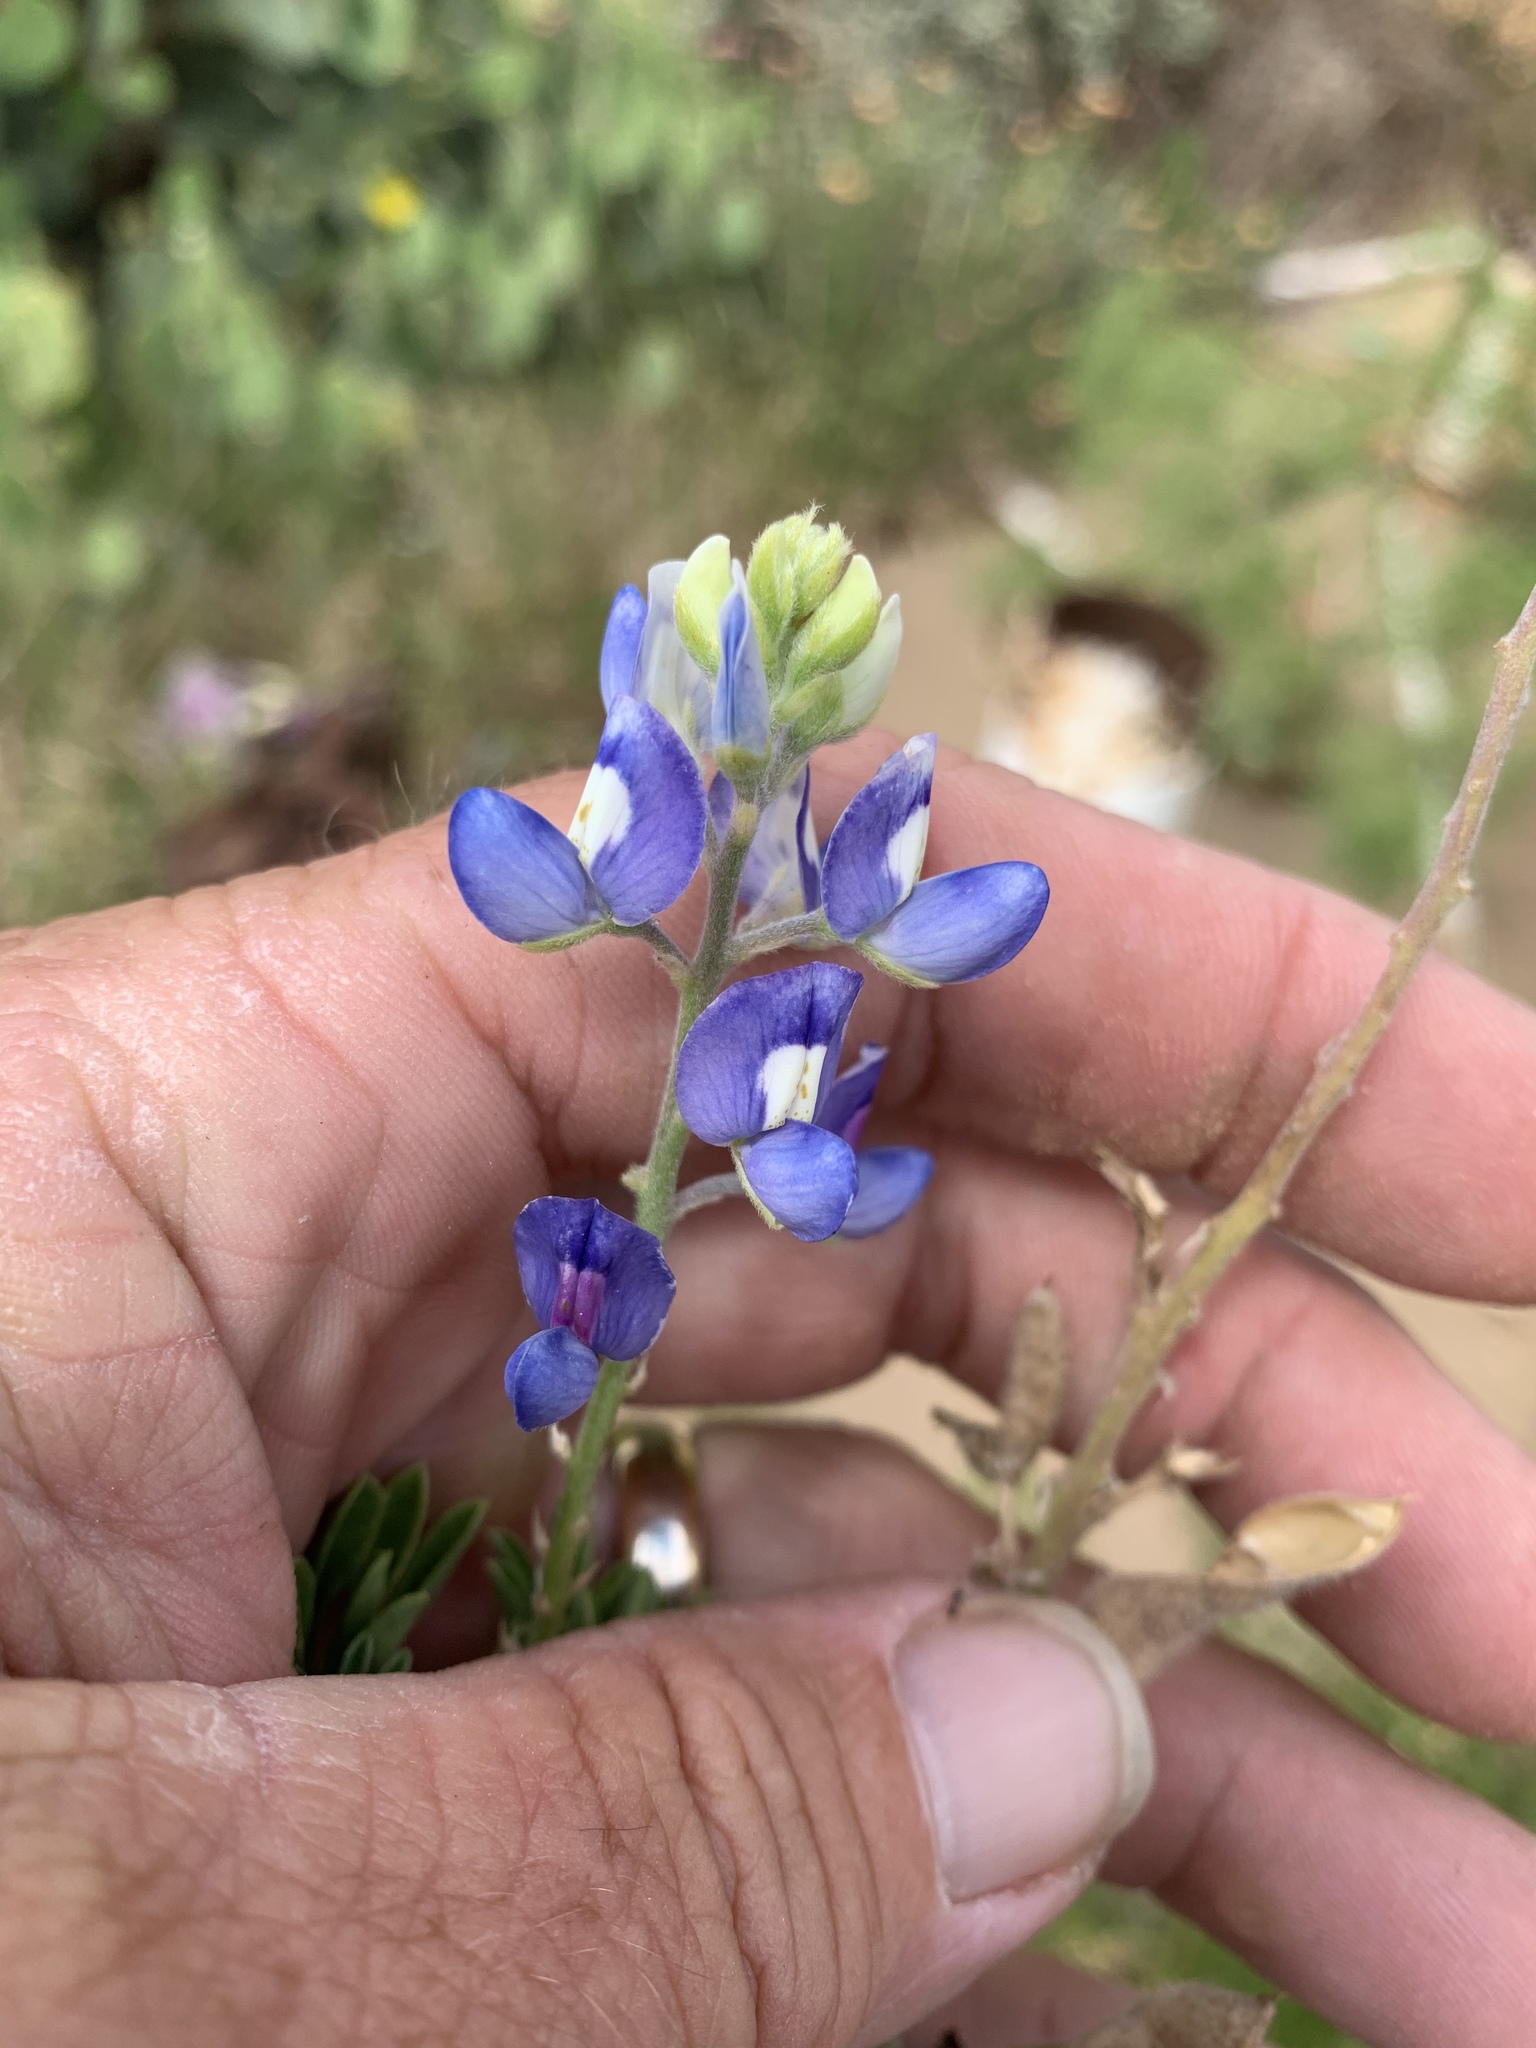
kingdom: Plantae
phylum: Tracheophyta
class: Magnoliopsida
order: Fabales
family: Fabaceae
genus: Lupinus
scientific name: Lupinus texensis
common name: Texas bluebonnet
